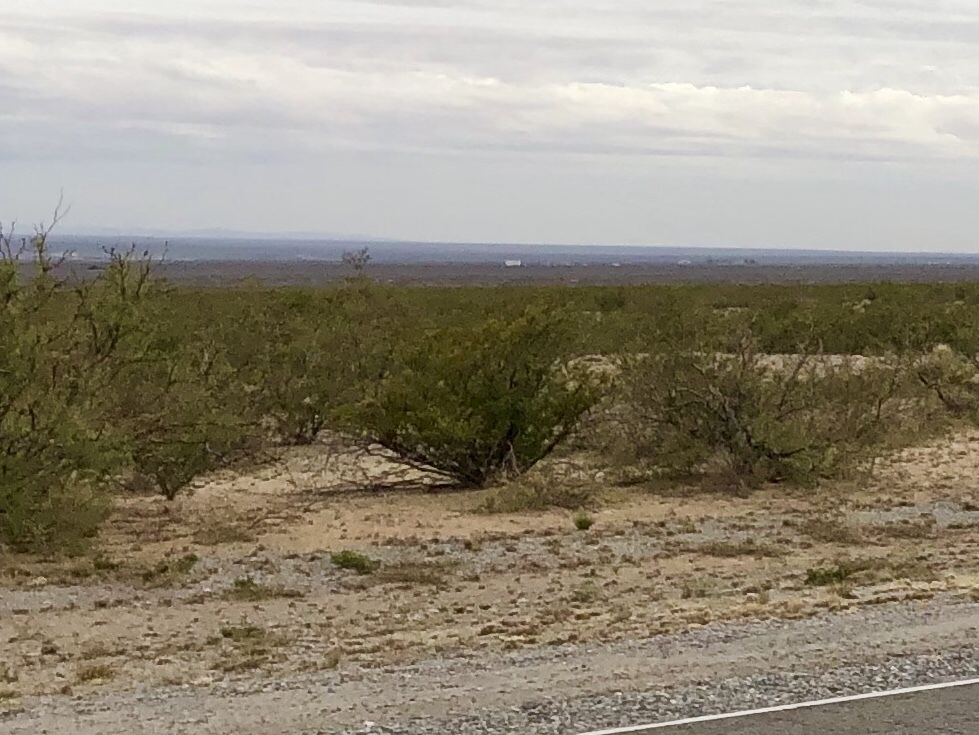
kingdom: Plantae
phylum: Tracheophyta
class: Magnoliopsida
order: Zygophyllales
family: Zygophyllaceae
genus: Larrea
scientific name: Larrea tridentata
